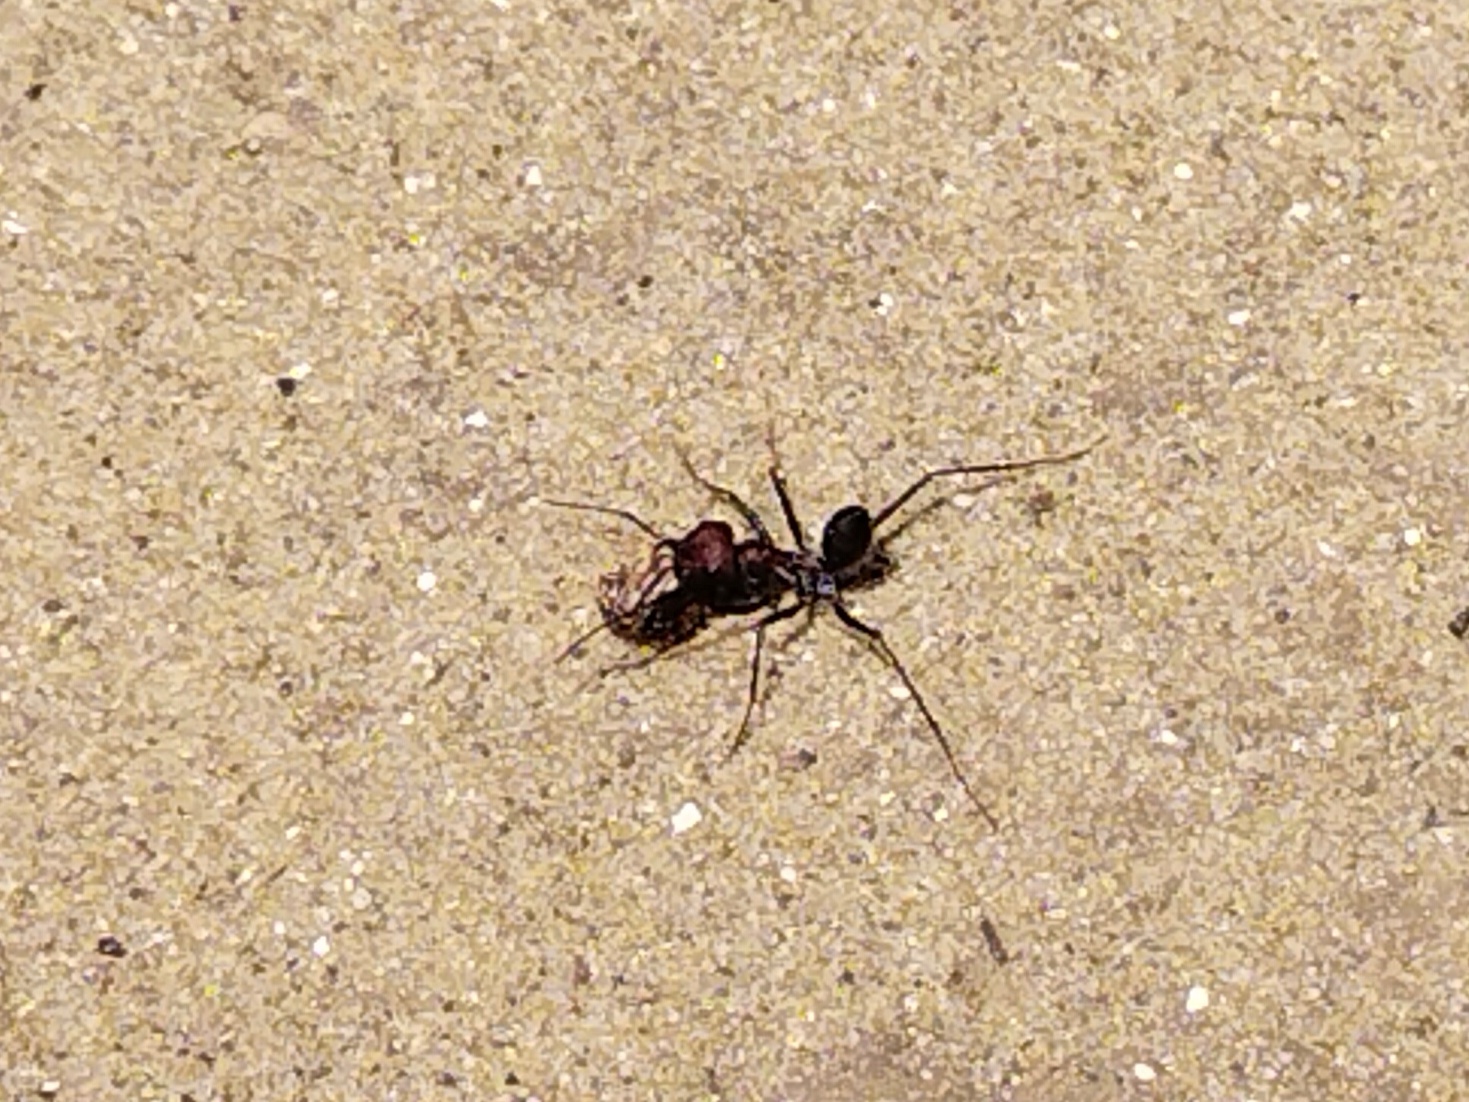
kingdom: Animalia
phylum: Arthropoda
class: Insecta
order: Hymenoptera
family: Formicidae
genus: Cataglyphis
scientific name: Cataglyphis nodus
